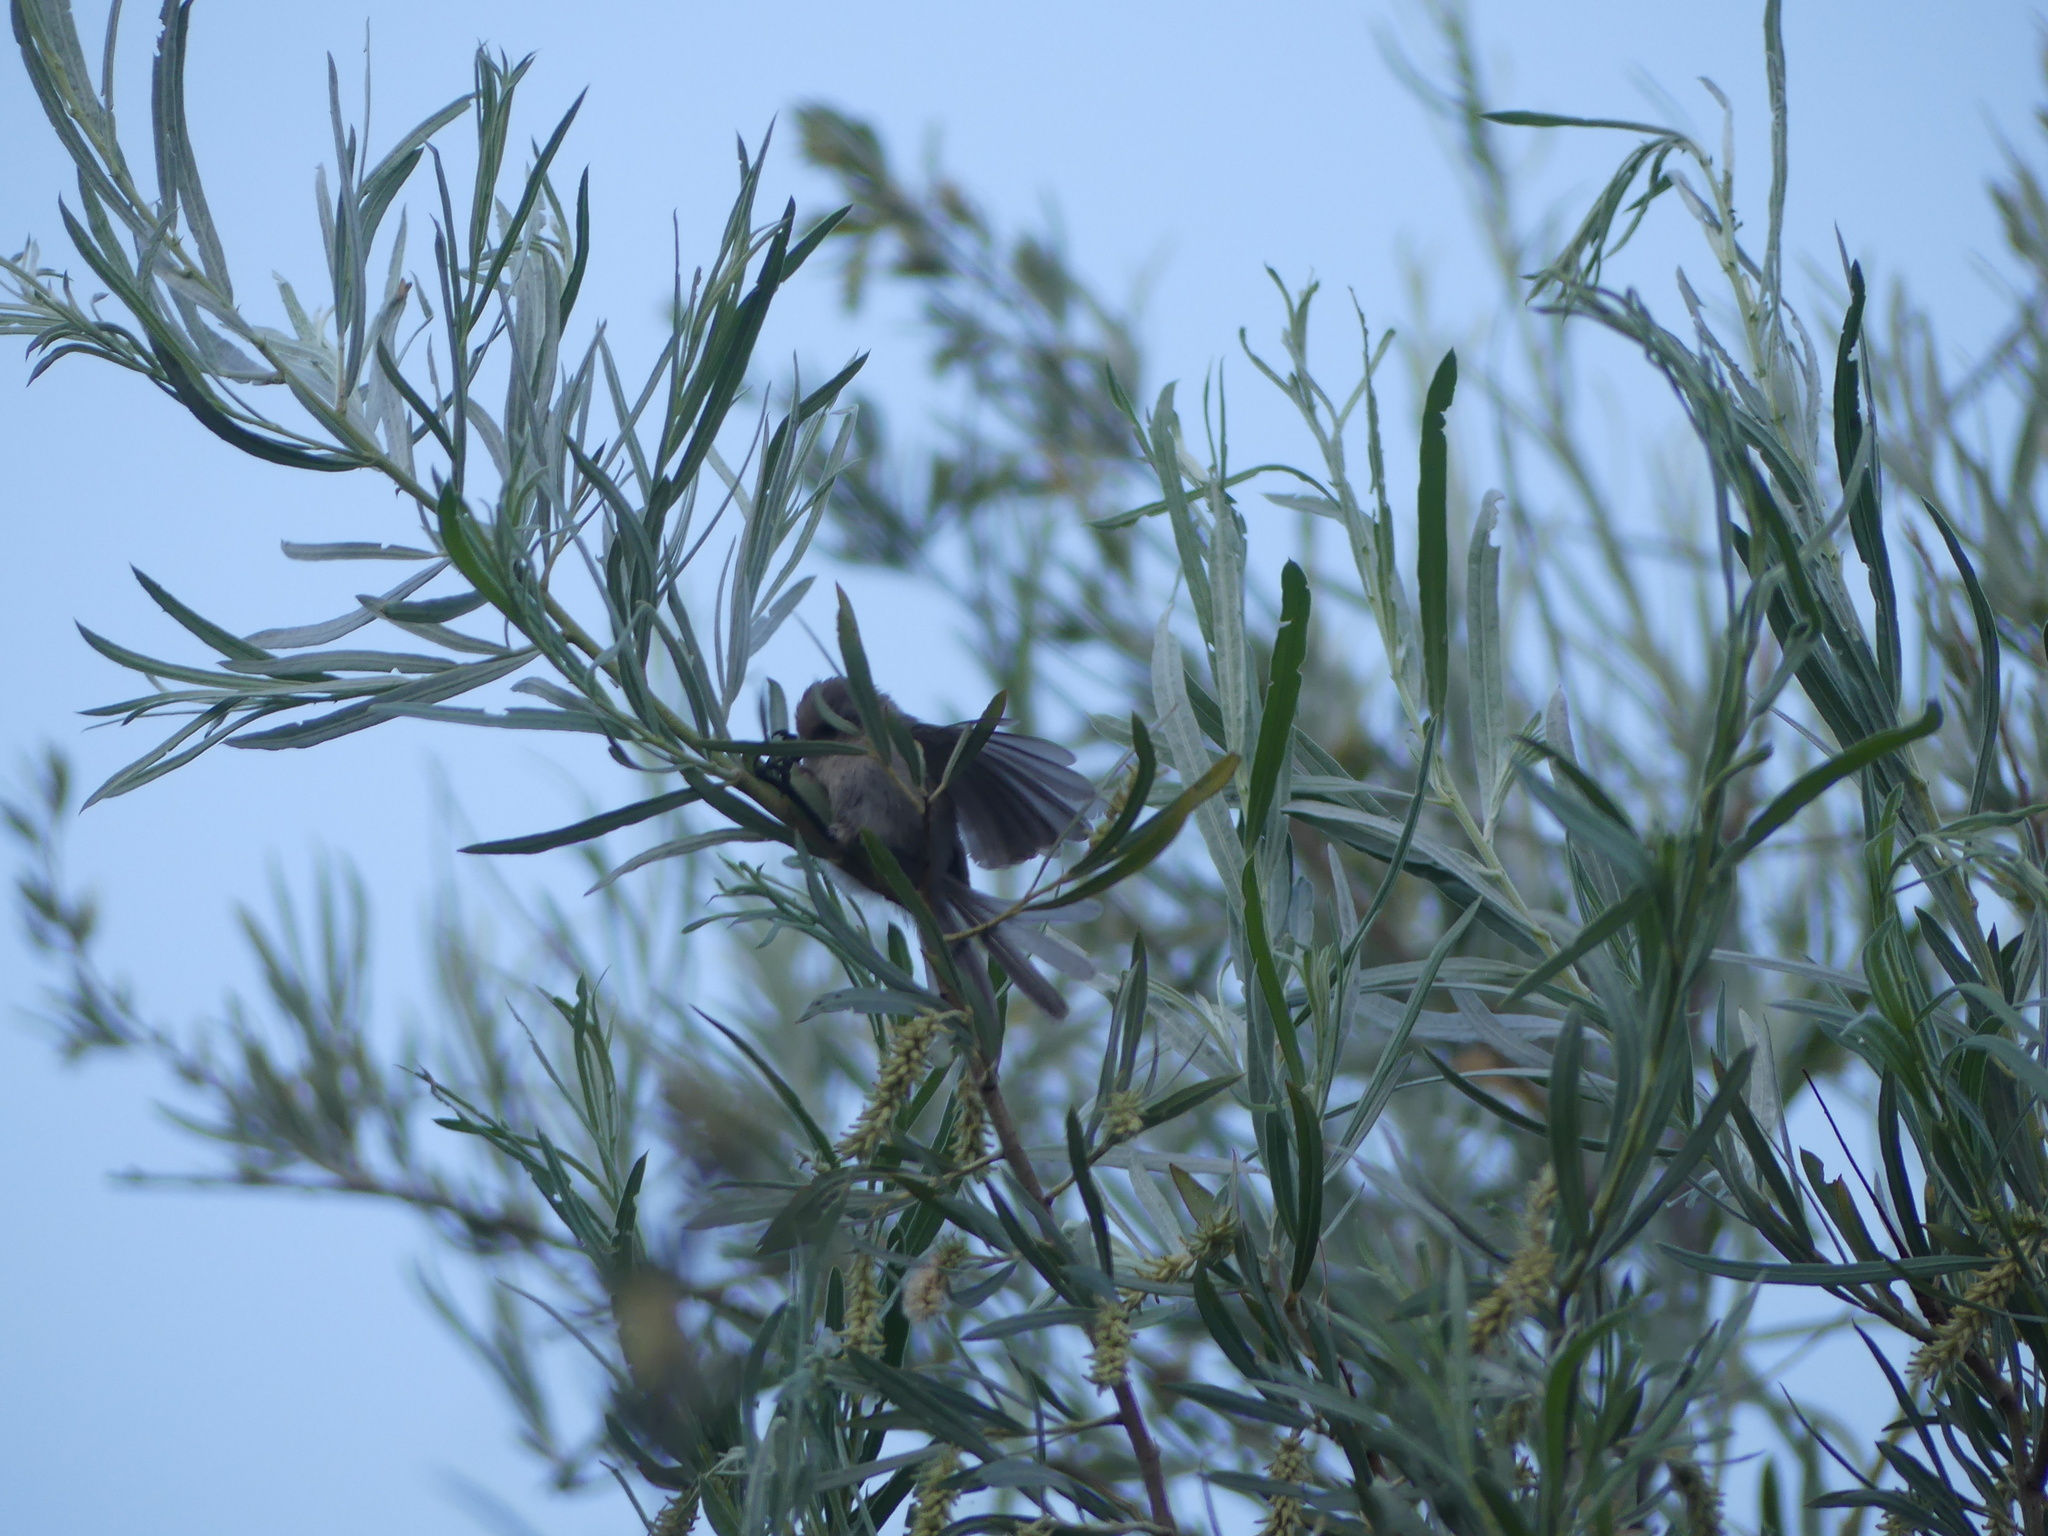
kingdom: Animalia
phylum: Chordata
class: Aves
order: Passeriformes
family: Aegithalidae
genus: Psaltriparus
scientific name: Psaltriparus minimus
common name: American bushtit
